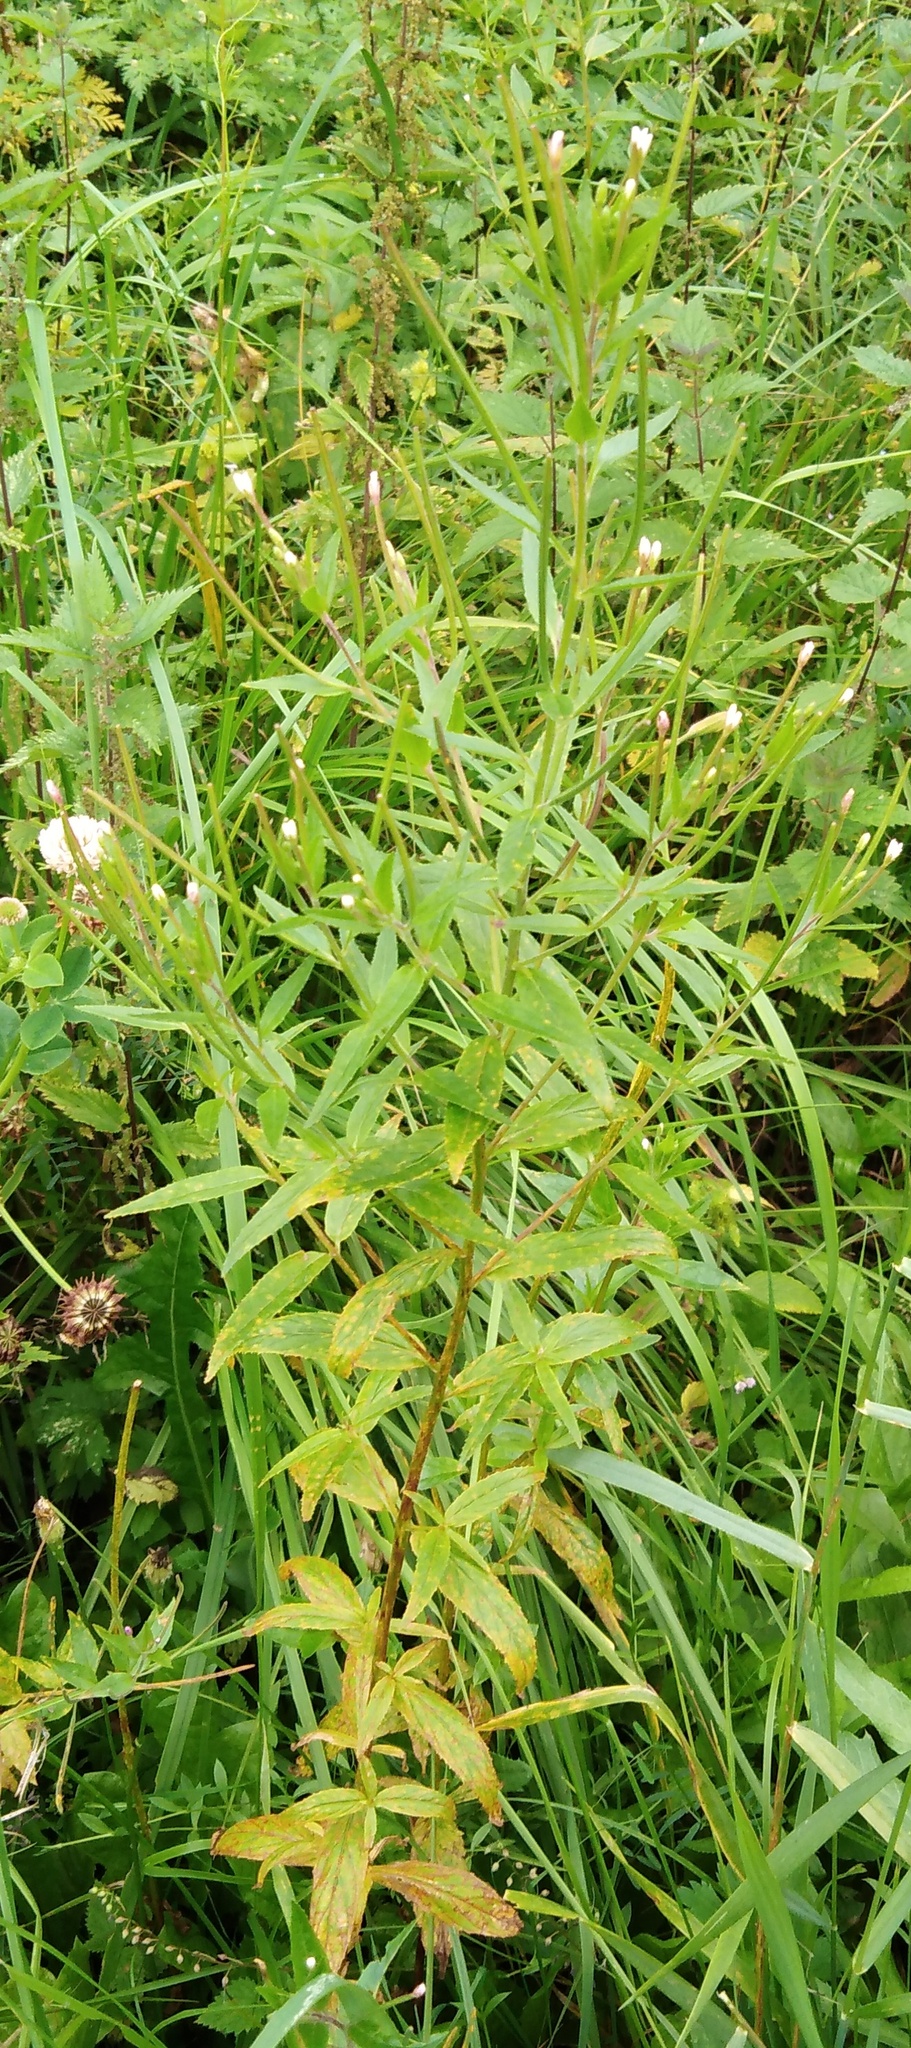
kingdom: Plantae
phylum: Tracheophyta
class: Magnoliopsida
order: Myrtales
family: Onagraceae
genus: Epilobium
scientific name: Epilobium pseudorubescens
